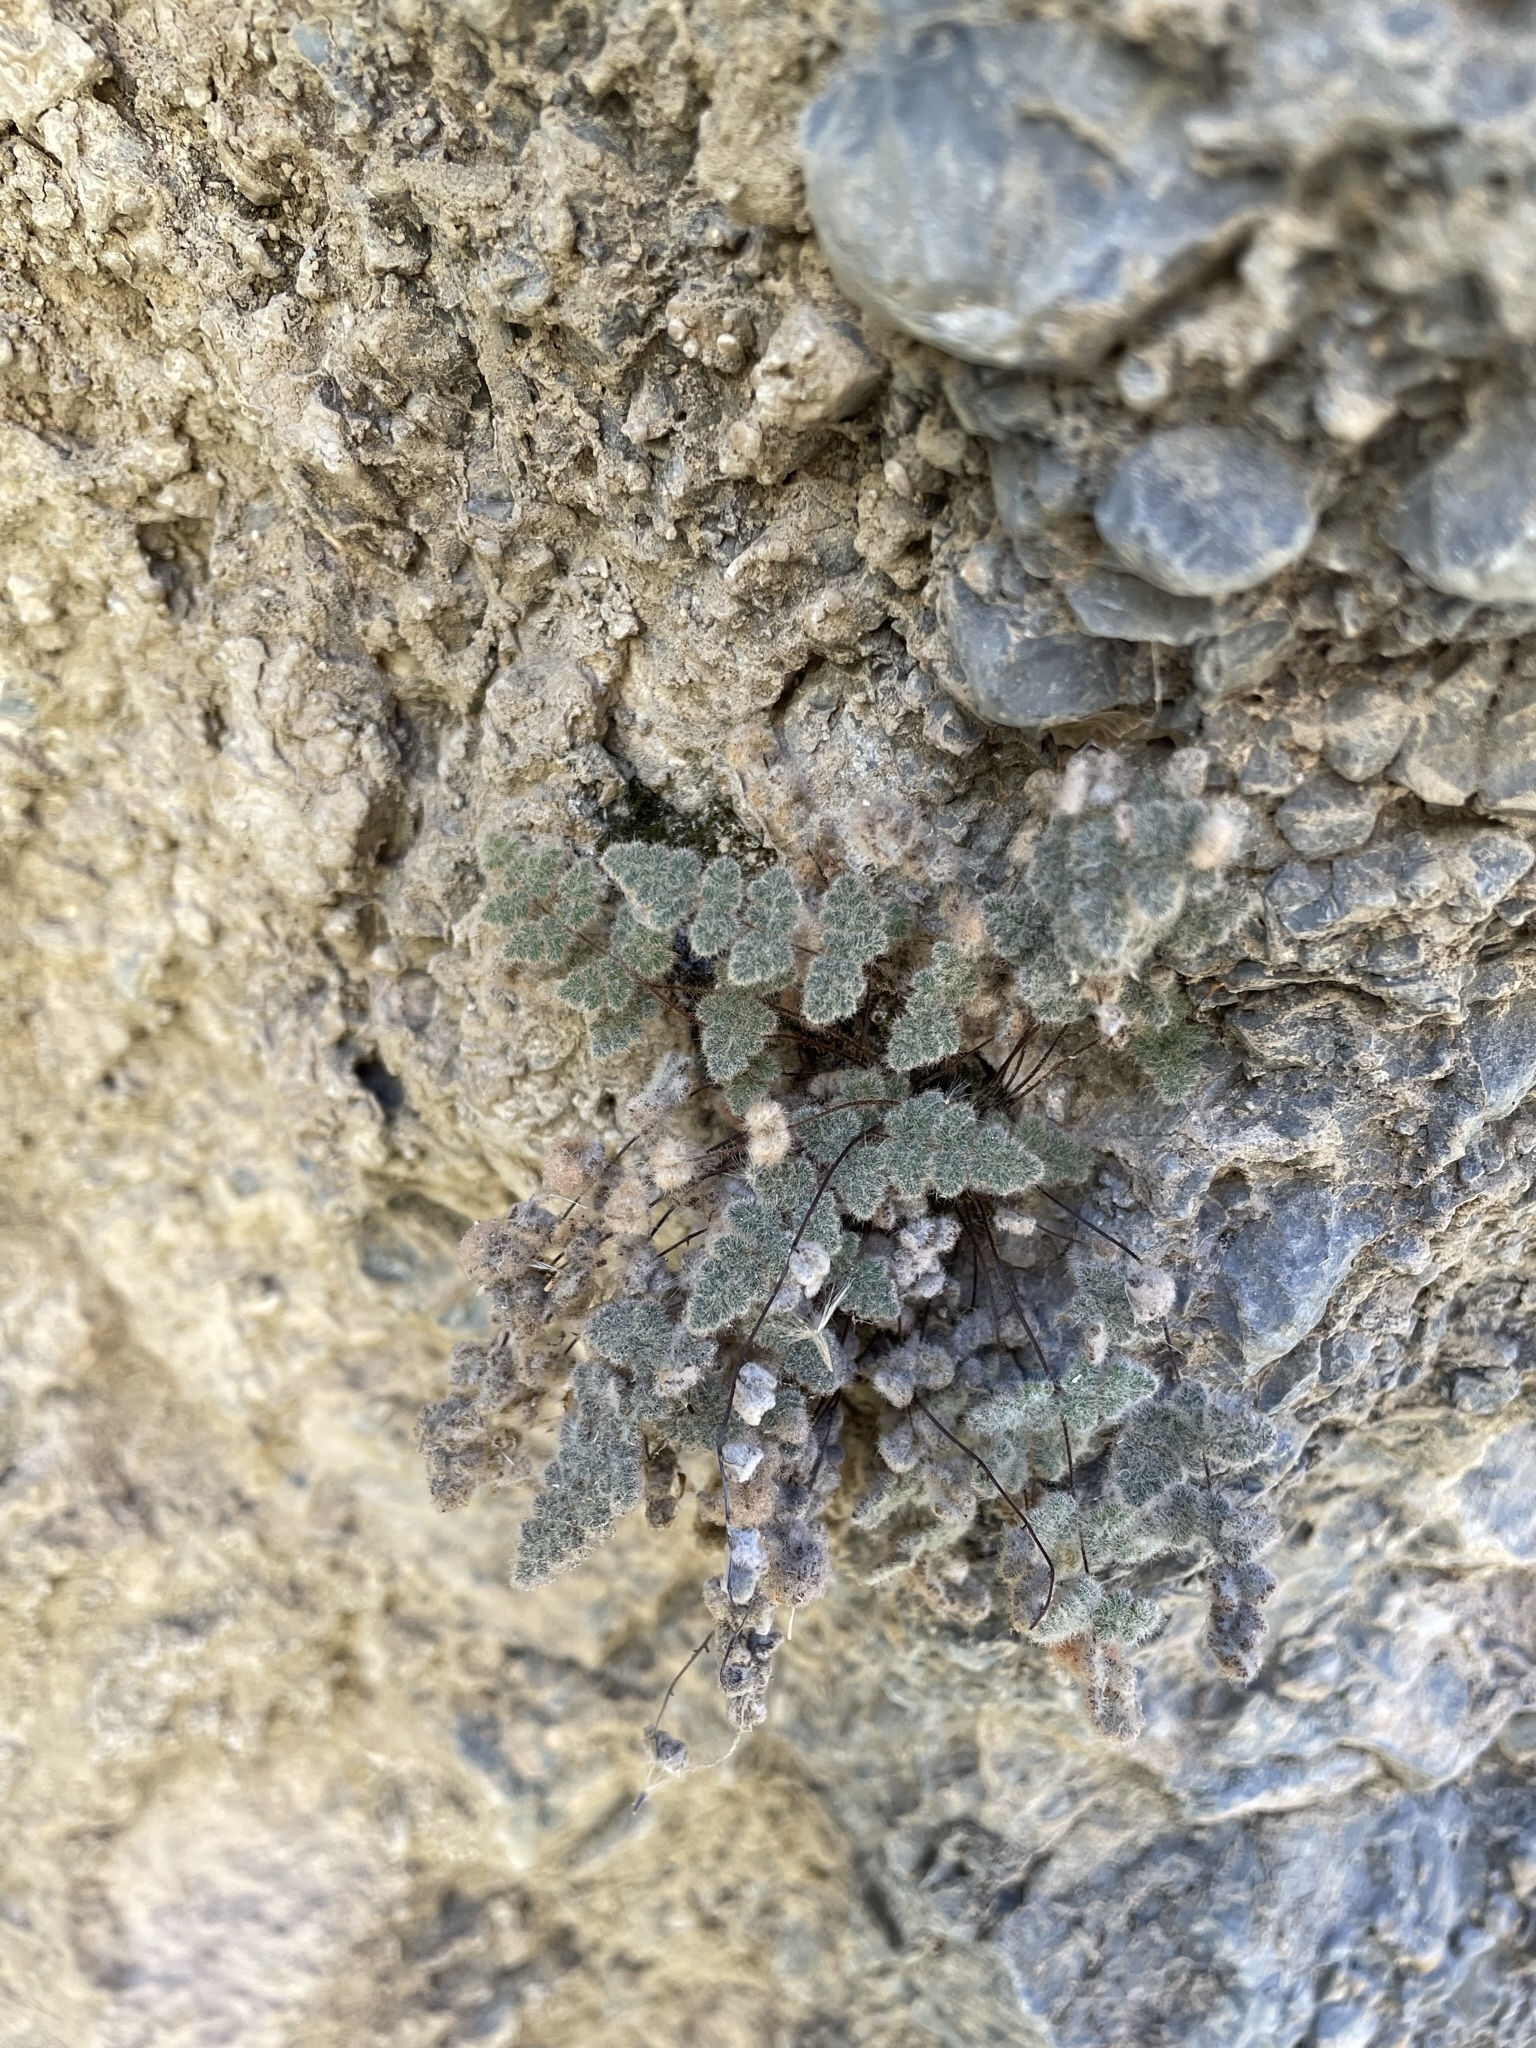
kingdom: Plantae
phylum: Tracheophyta
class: Polypodiopsida
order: Polypodiales
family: Pteridaceae
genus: Myriopteris
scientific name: Myriopteris parryi
